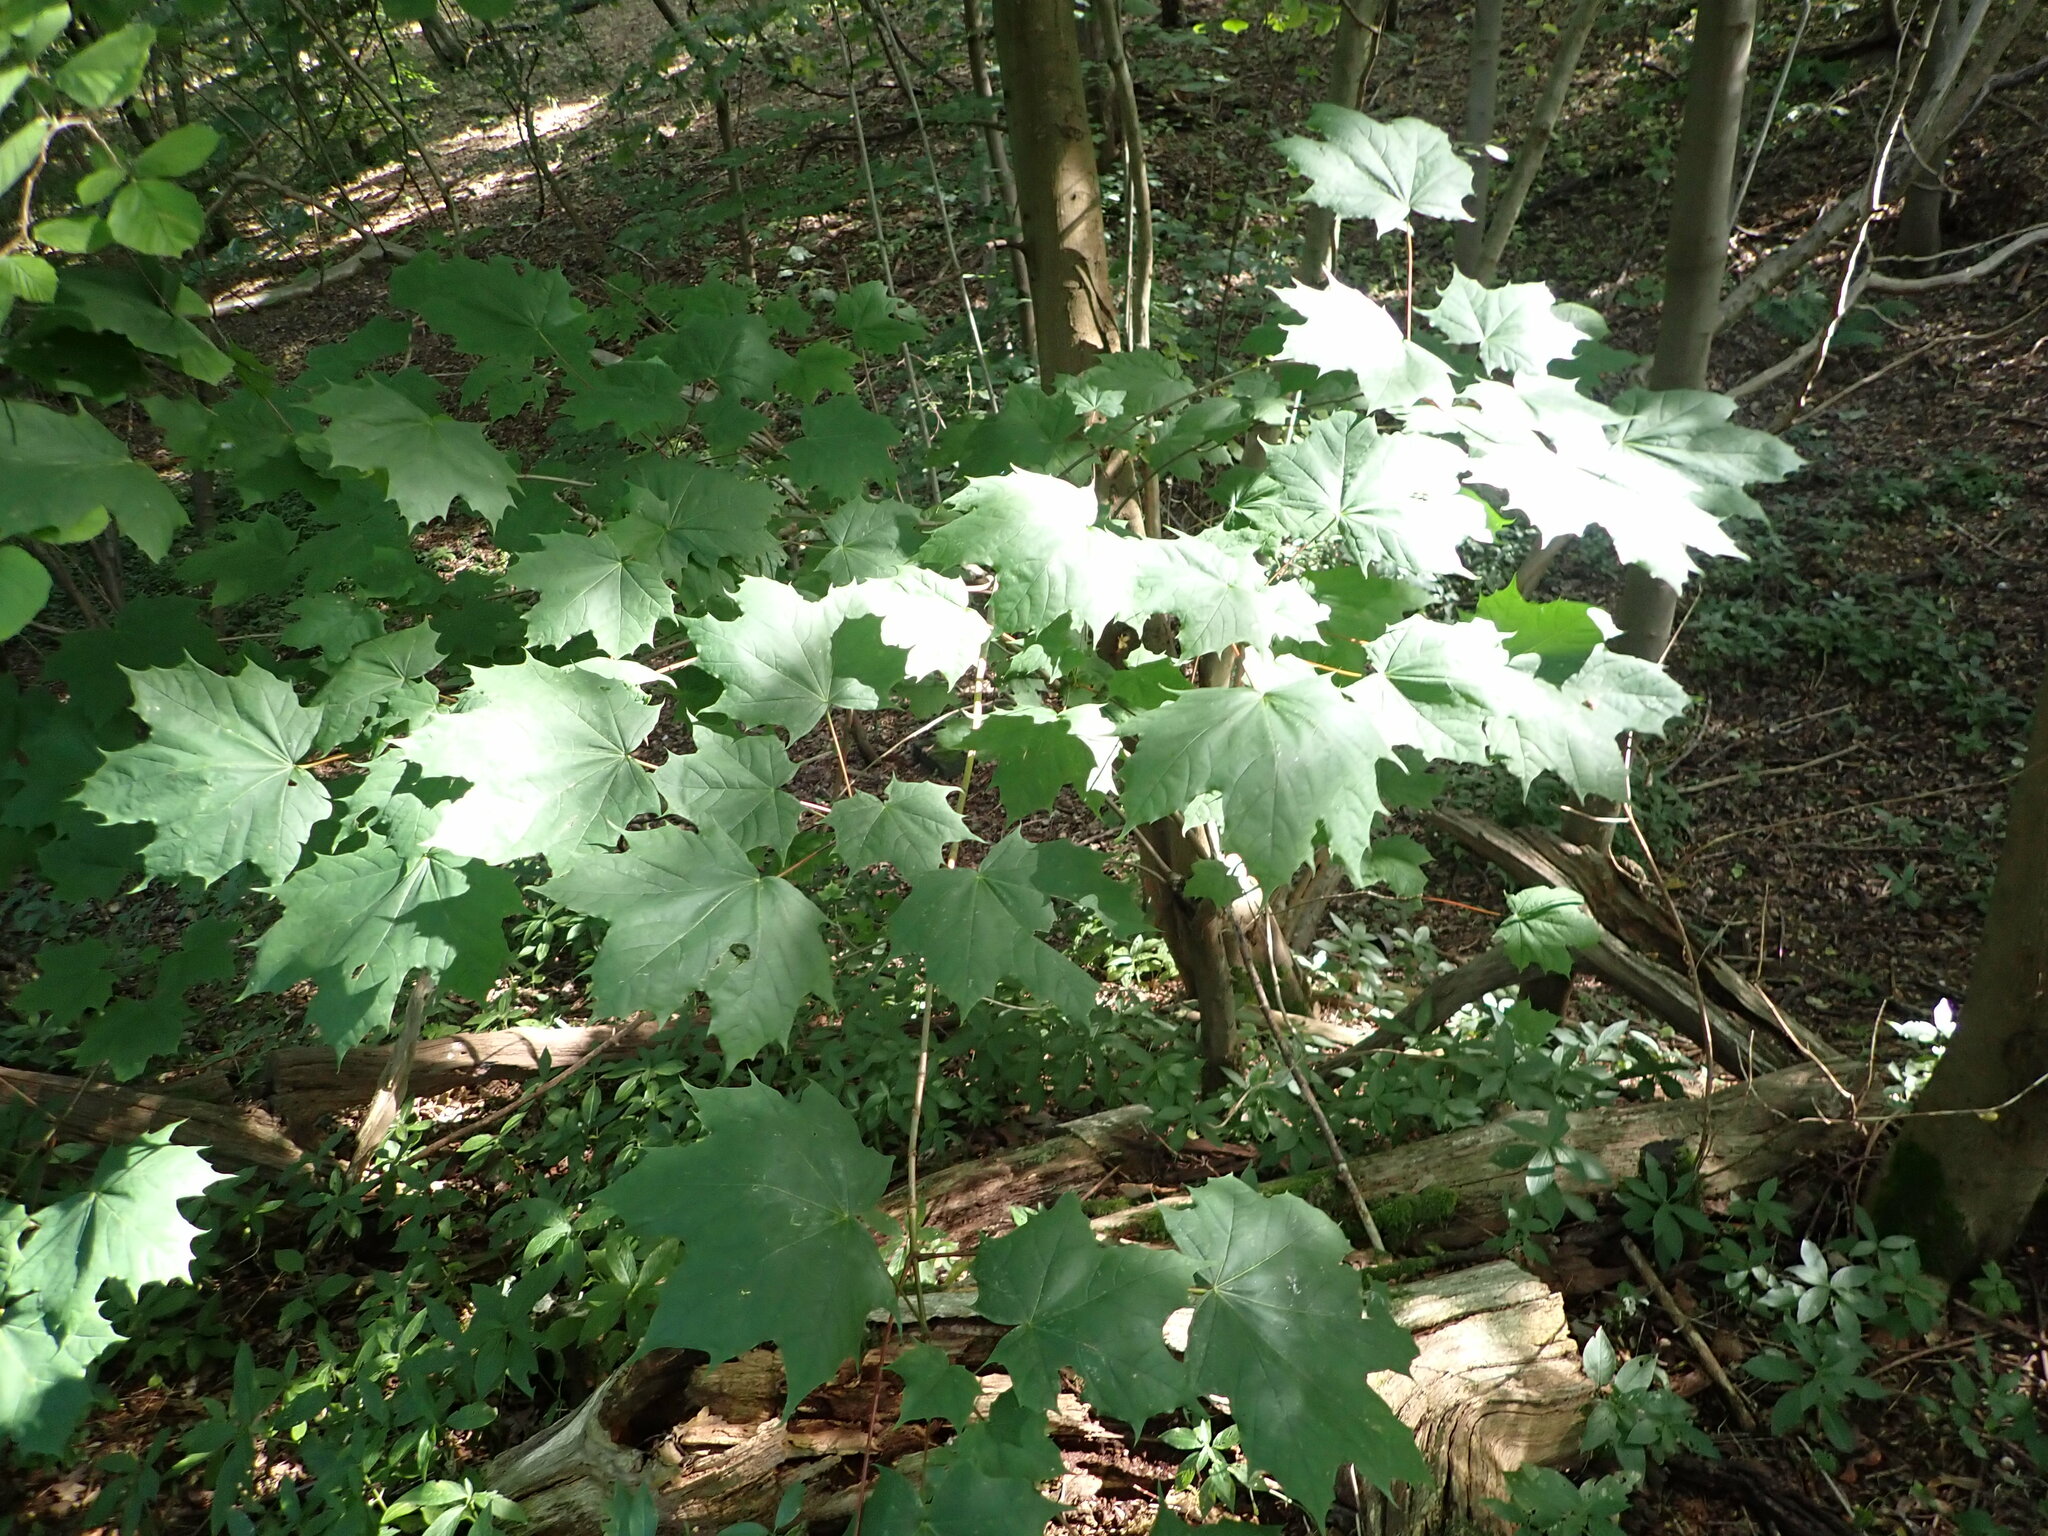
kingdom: Plantae
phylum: Tracheophyta
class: Magnoliopsida
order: Sapindales
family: Sapindaceae
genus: Acer
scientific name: Acer platanoides
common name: Norway maple
